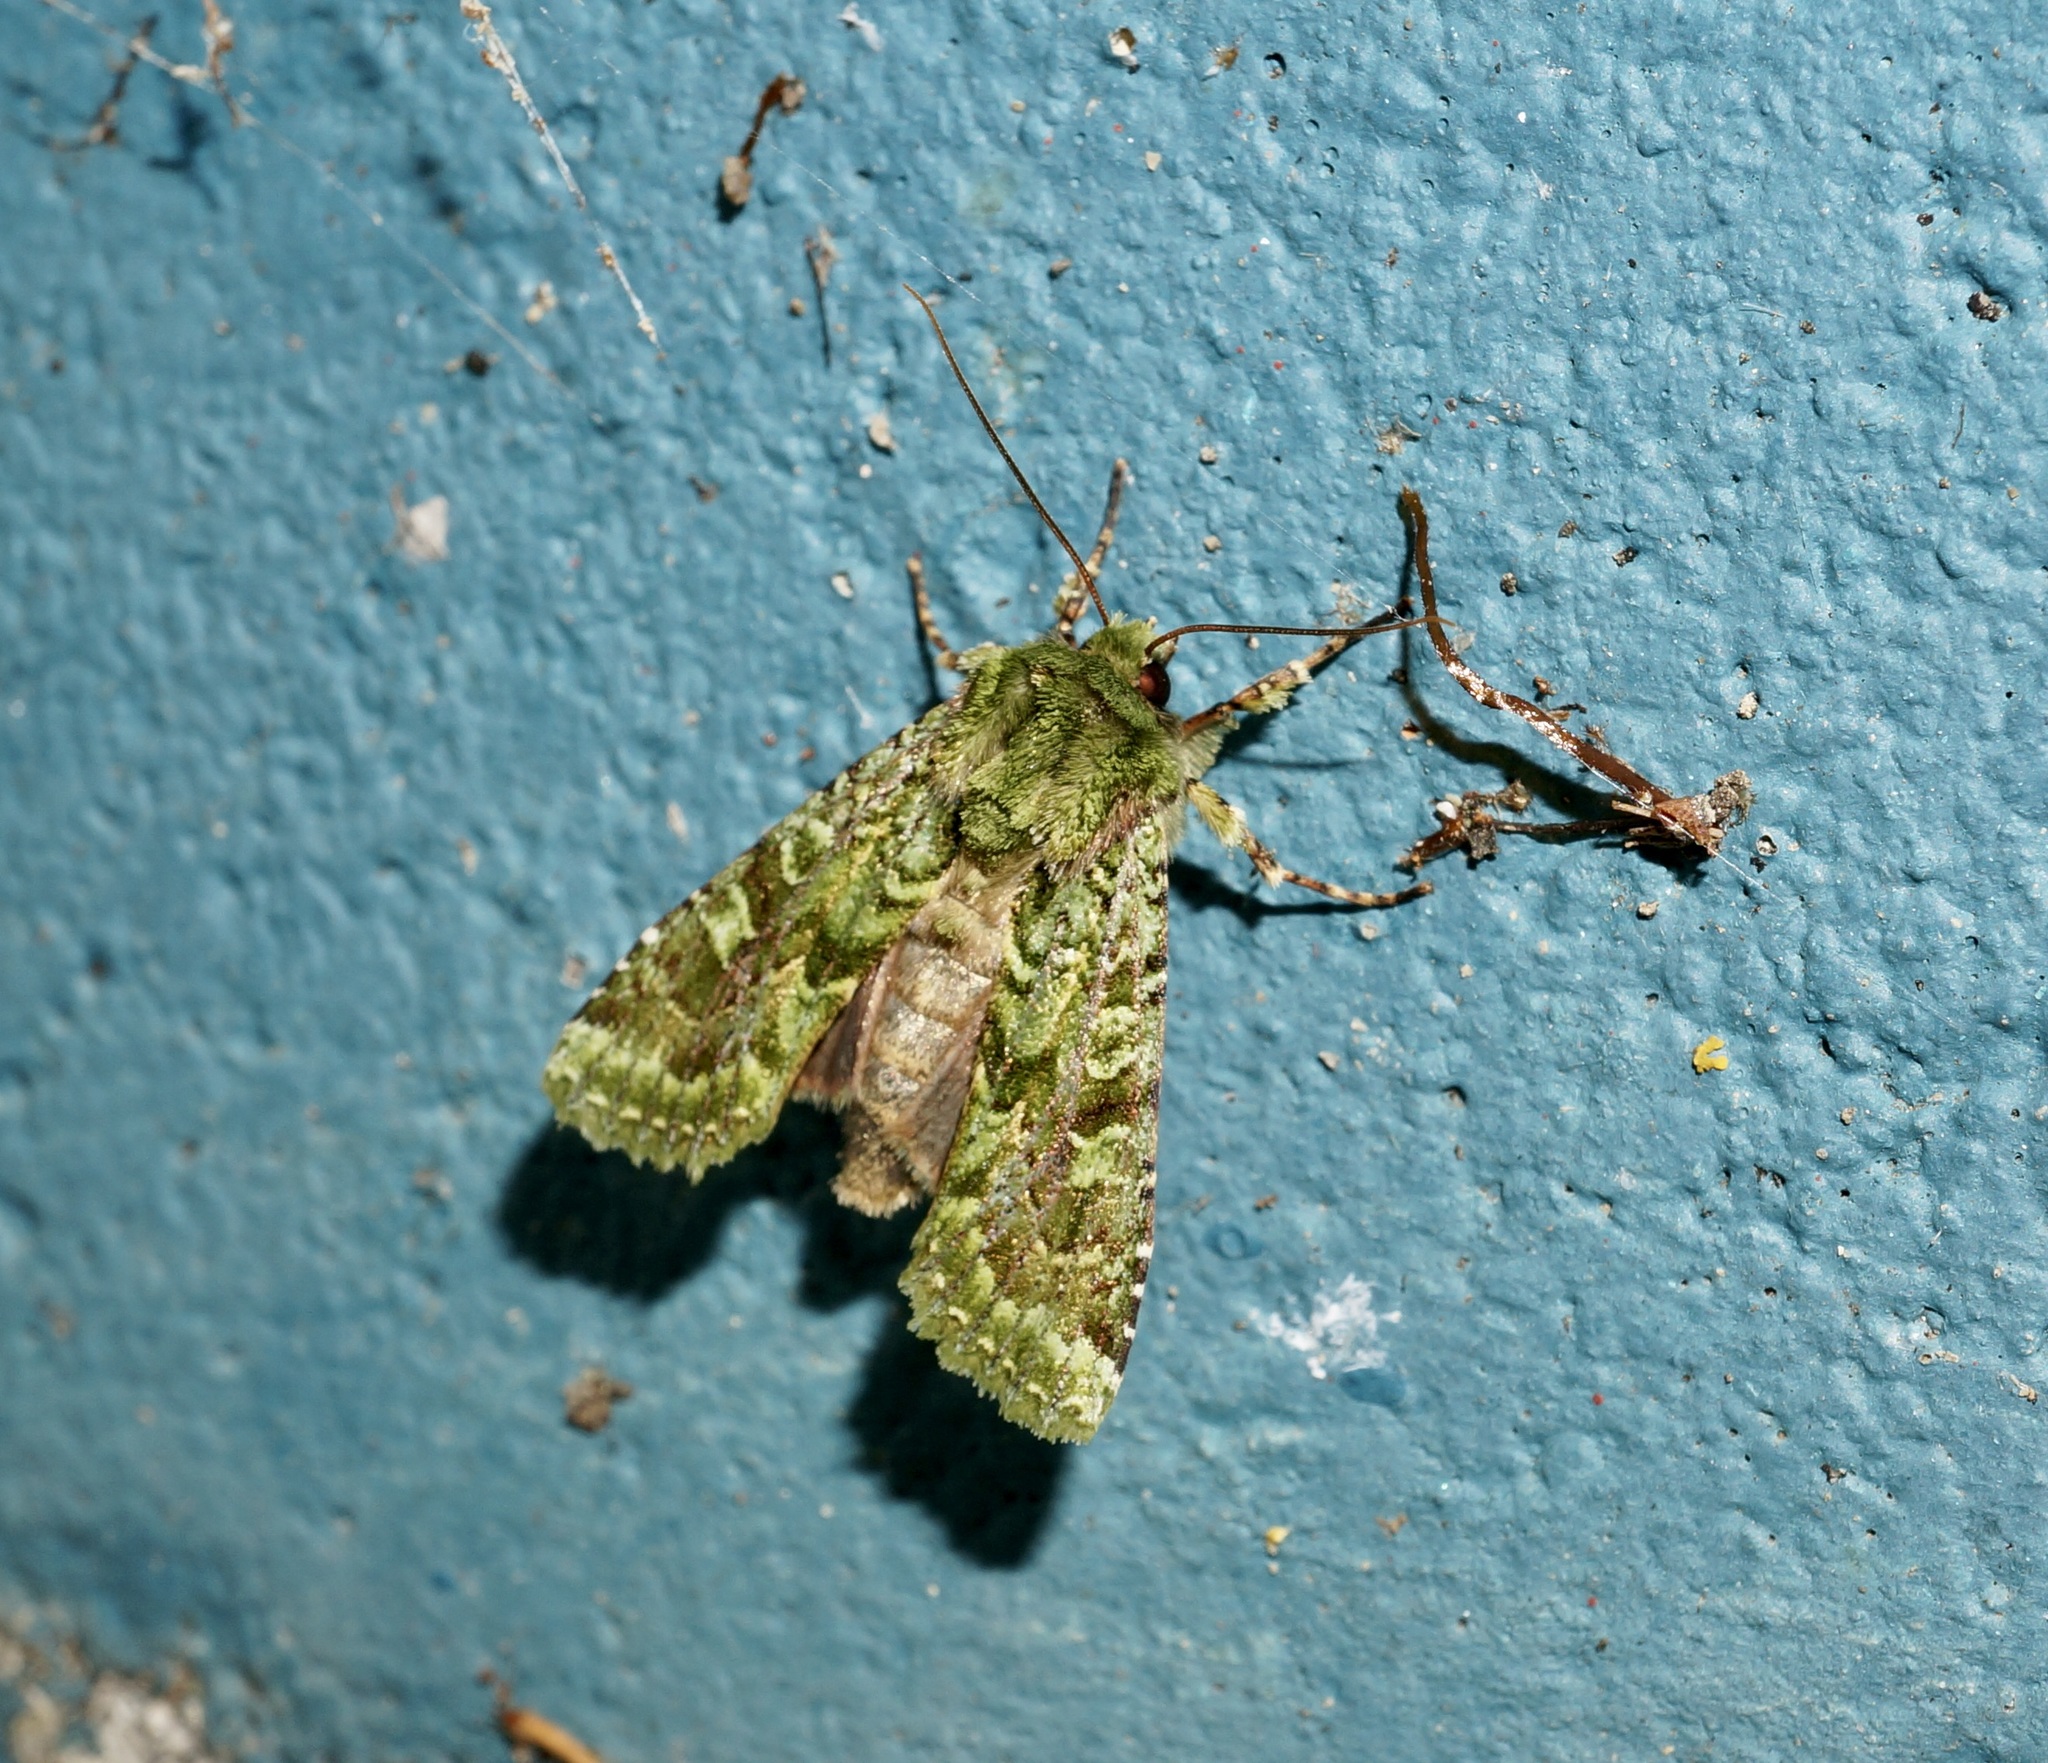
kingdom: Animalia
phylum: Arthropoda
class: Insecta
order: Lepidoptera
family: Noctuidae
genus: Feredayia
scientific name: Feredayia grammosa
